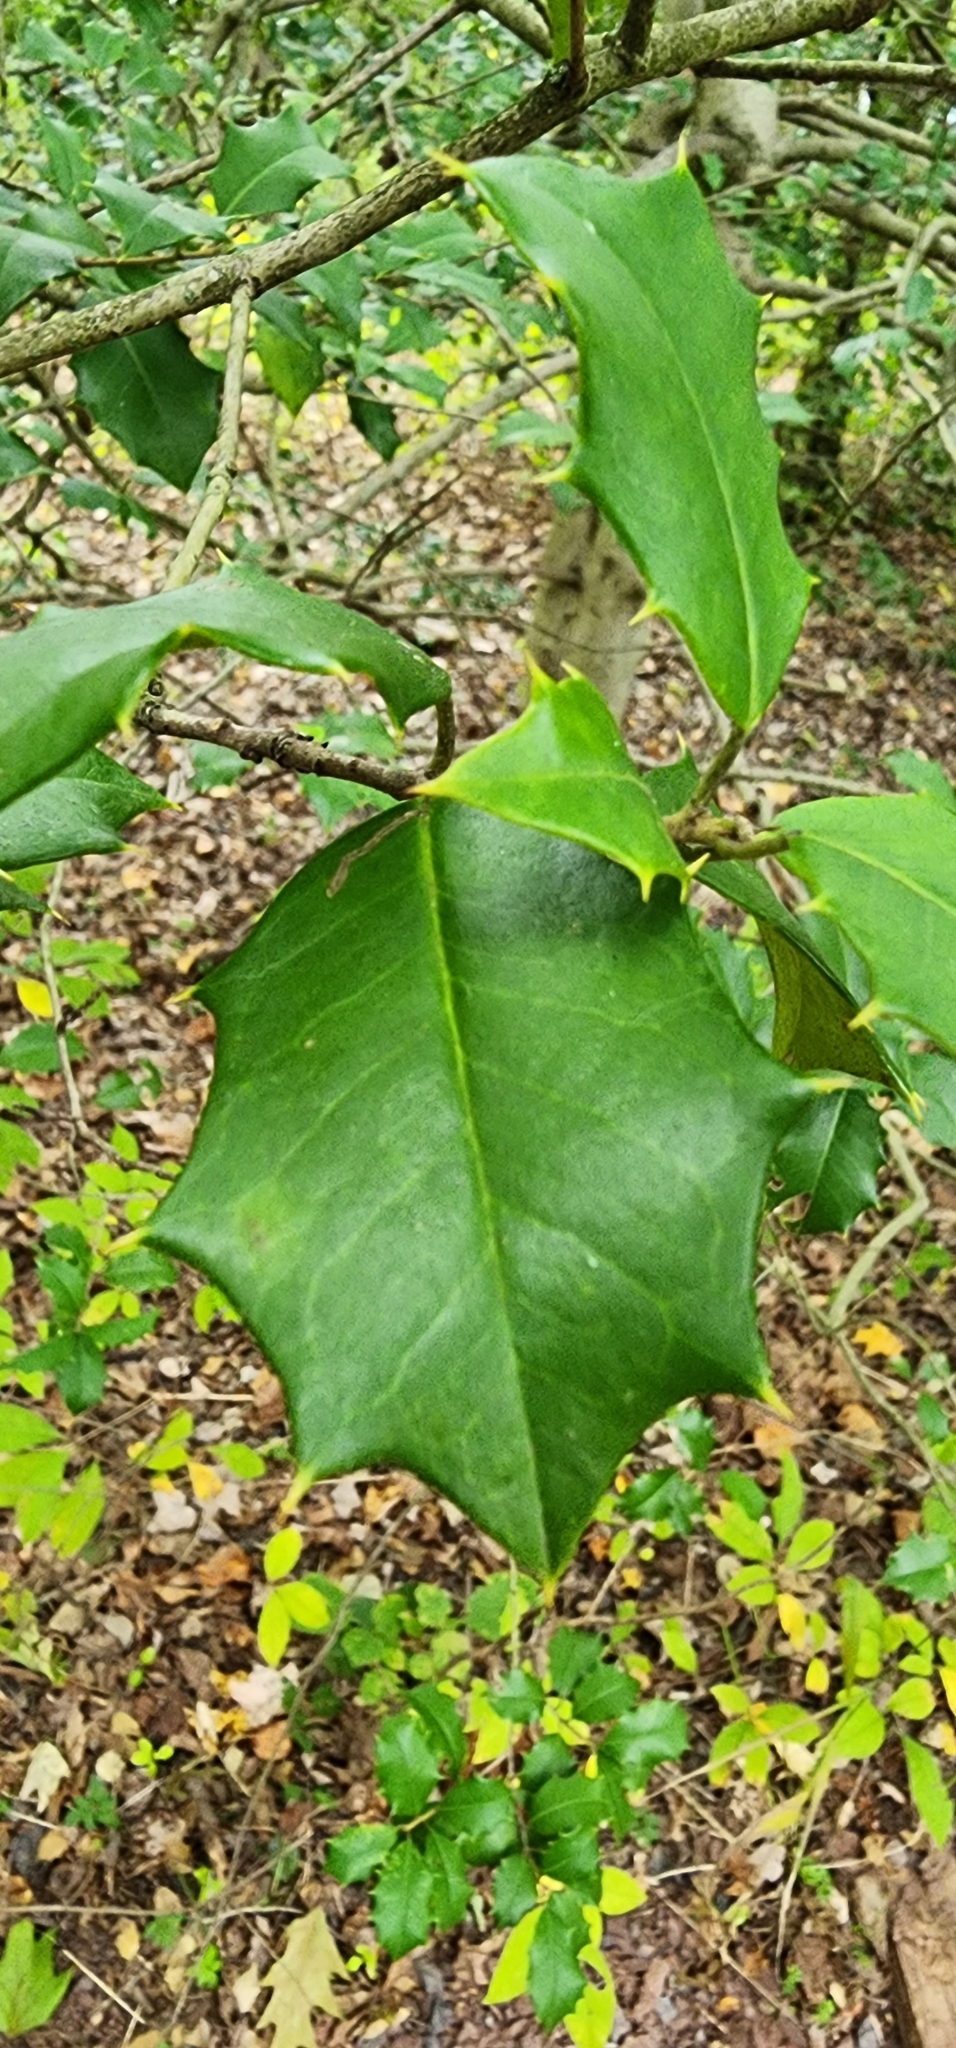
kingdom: Plantae
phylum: Tracheophyta
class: Magnoliopsida
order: Aquifoliales
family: Aquifoliaceae
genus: Ilex
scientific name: Ilex opaca
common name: American holly
